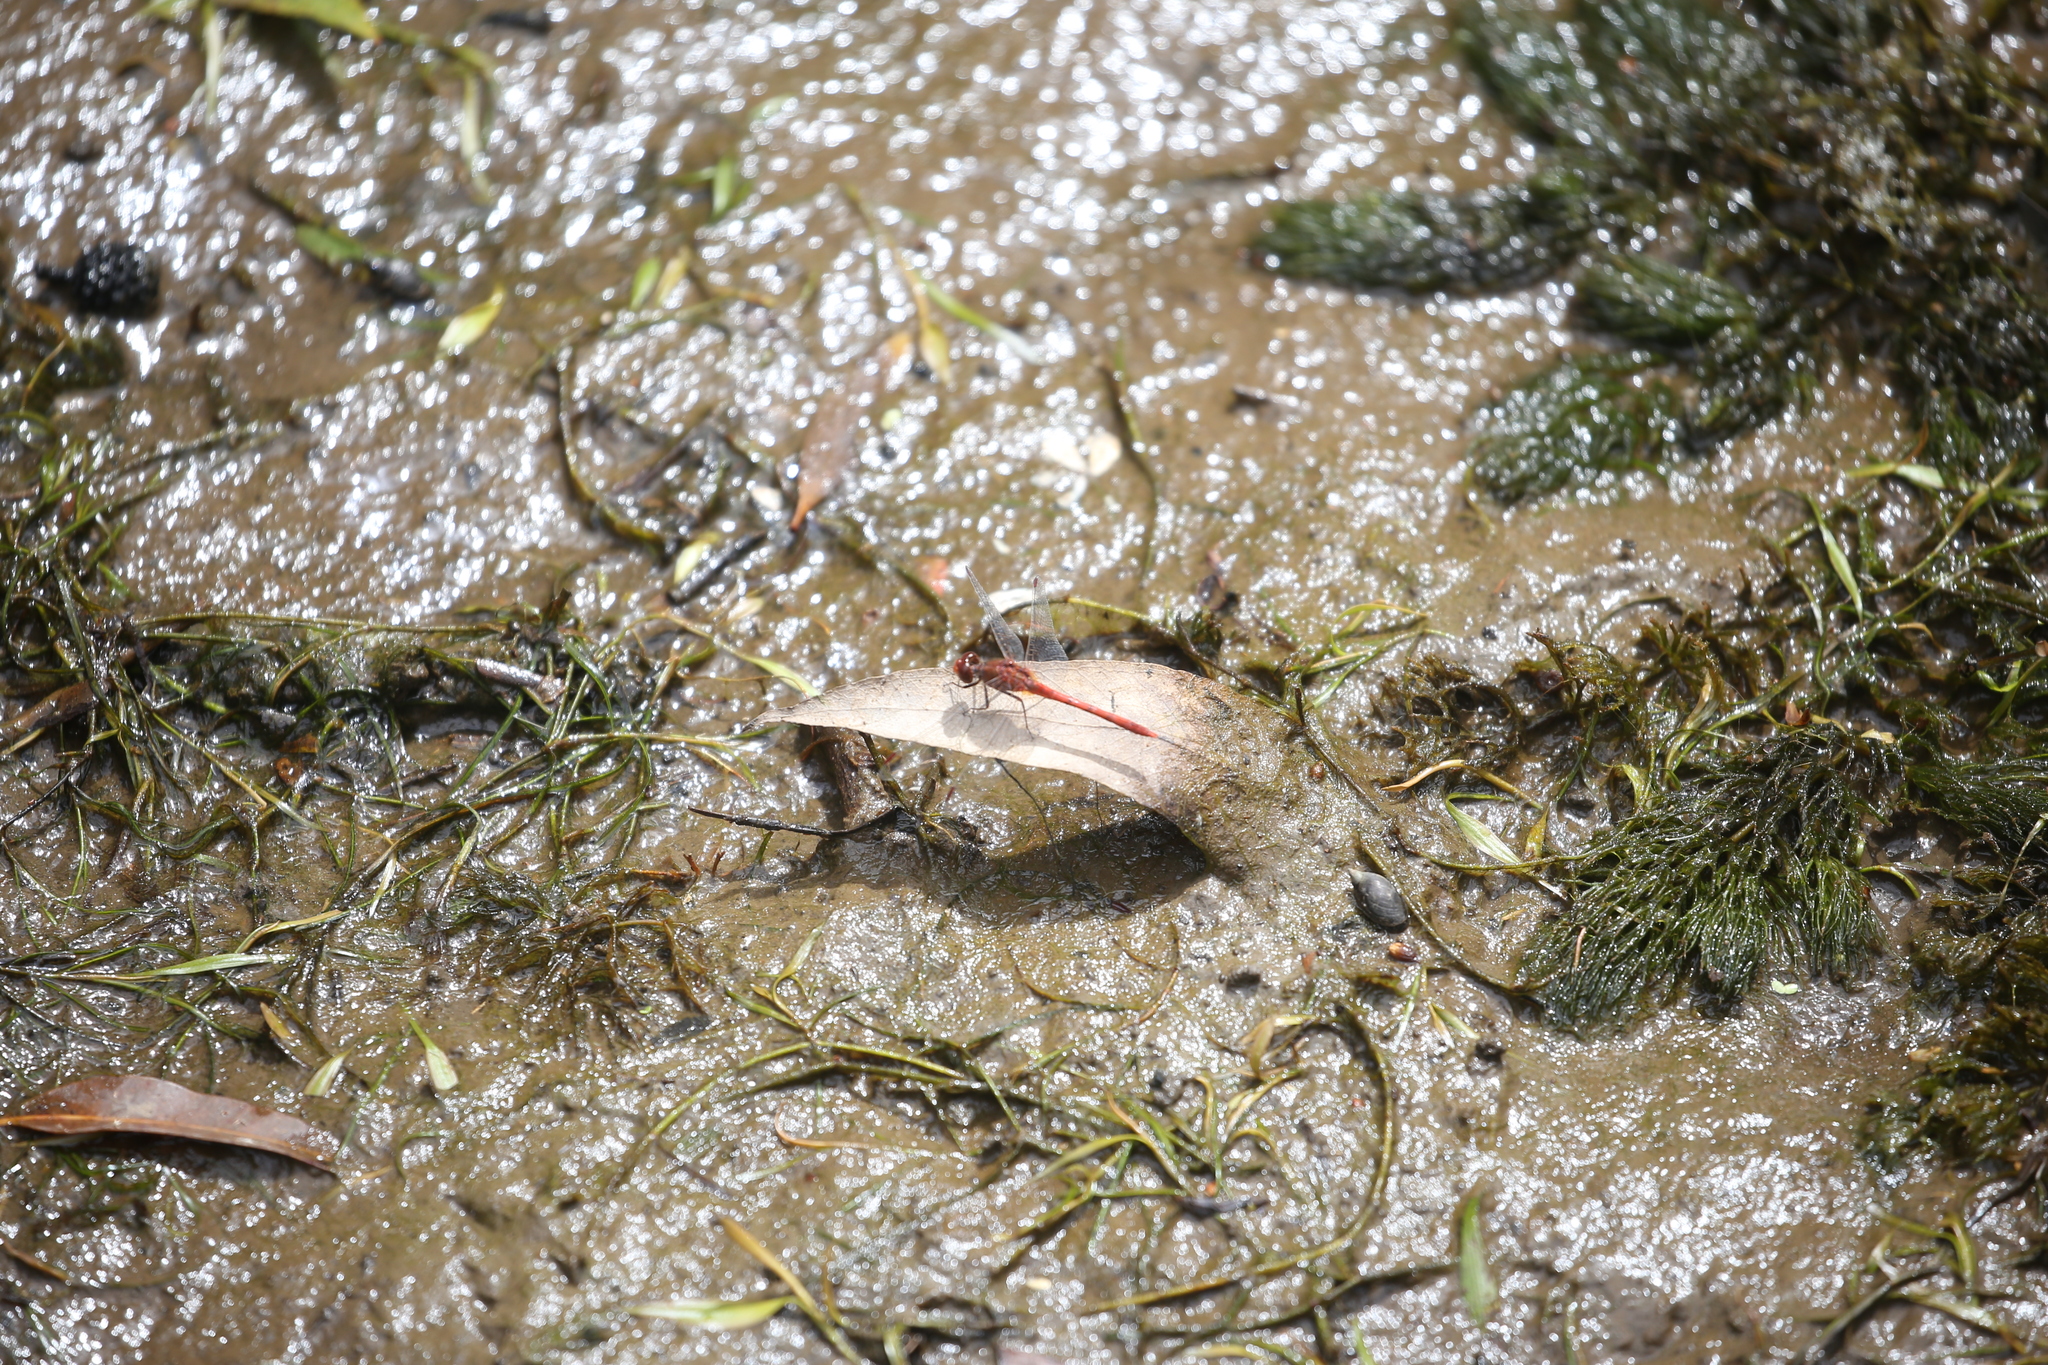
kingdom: Animalia
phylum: Arthropoda
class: Insecta
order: Odonata
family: Libellulidae
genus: Diplacodes
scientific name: Diplacodes bipunctata
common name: Red percher dragonfly
